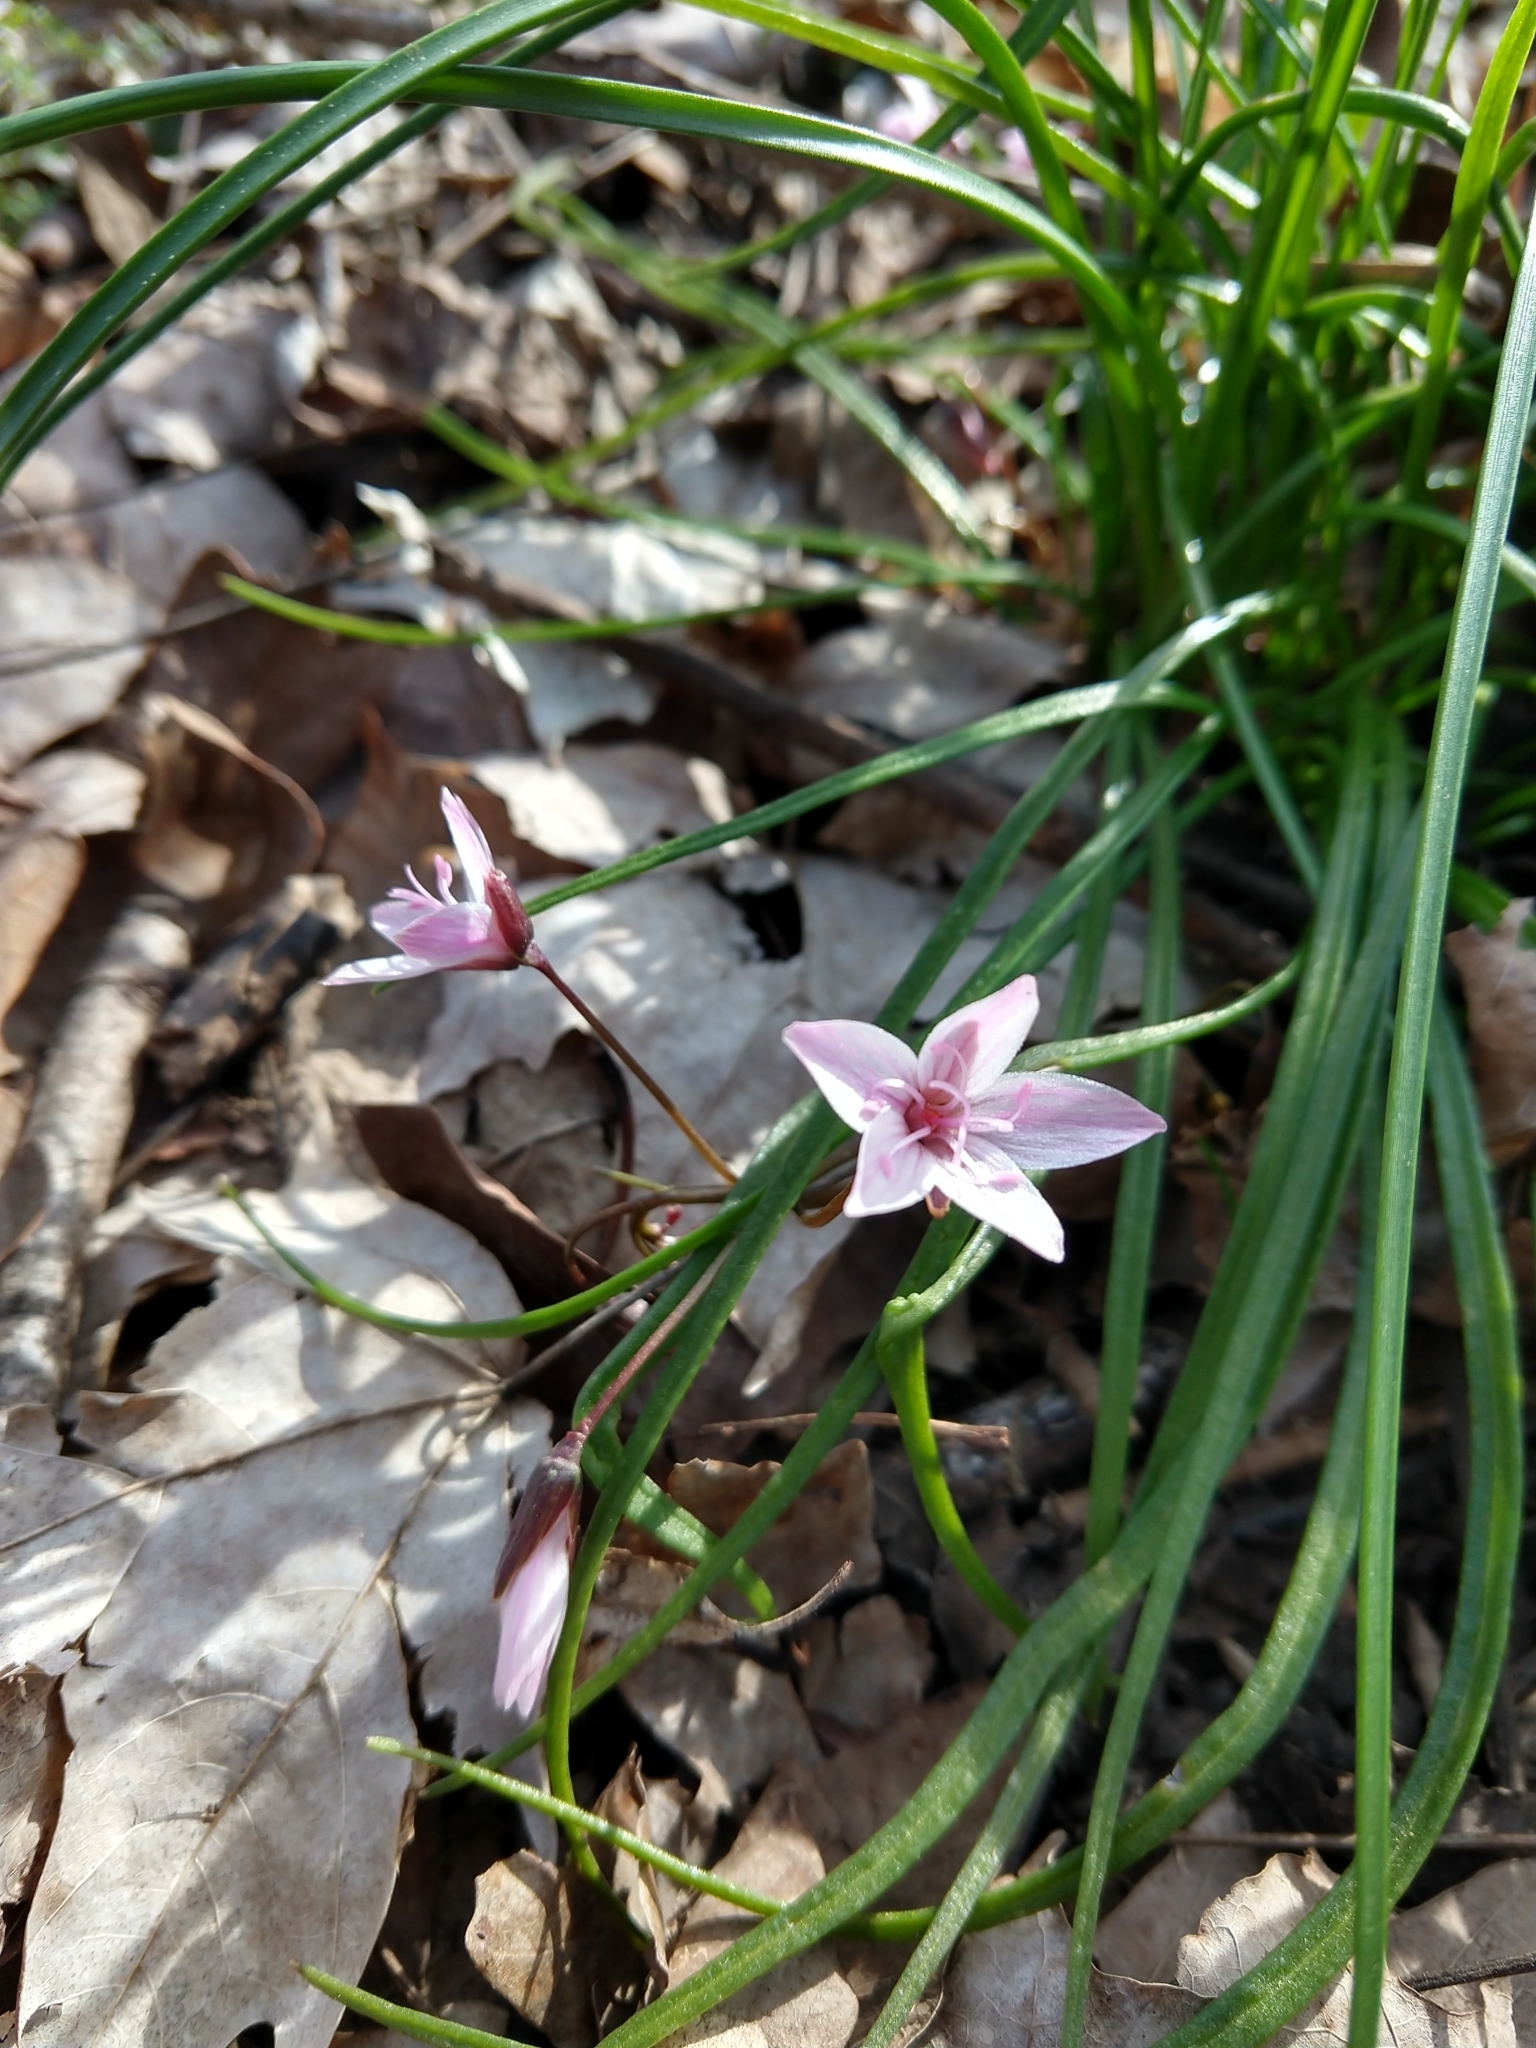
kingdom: Plantae
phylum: Tracheophyta
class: Magnoliopsida
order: Caryophyllales
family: Montiaceae
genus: Claytonia
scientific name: Claytonia virginica
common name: Virginia springbeauty
